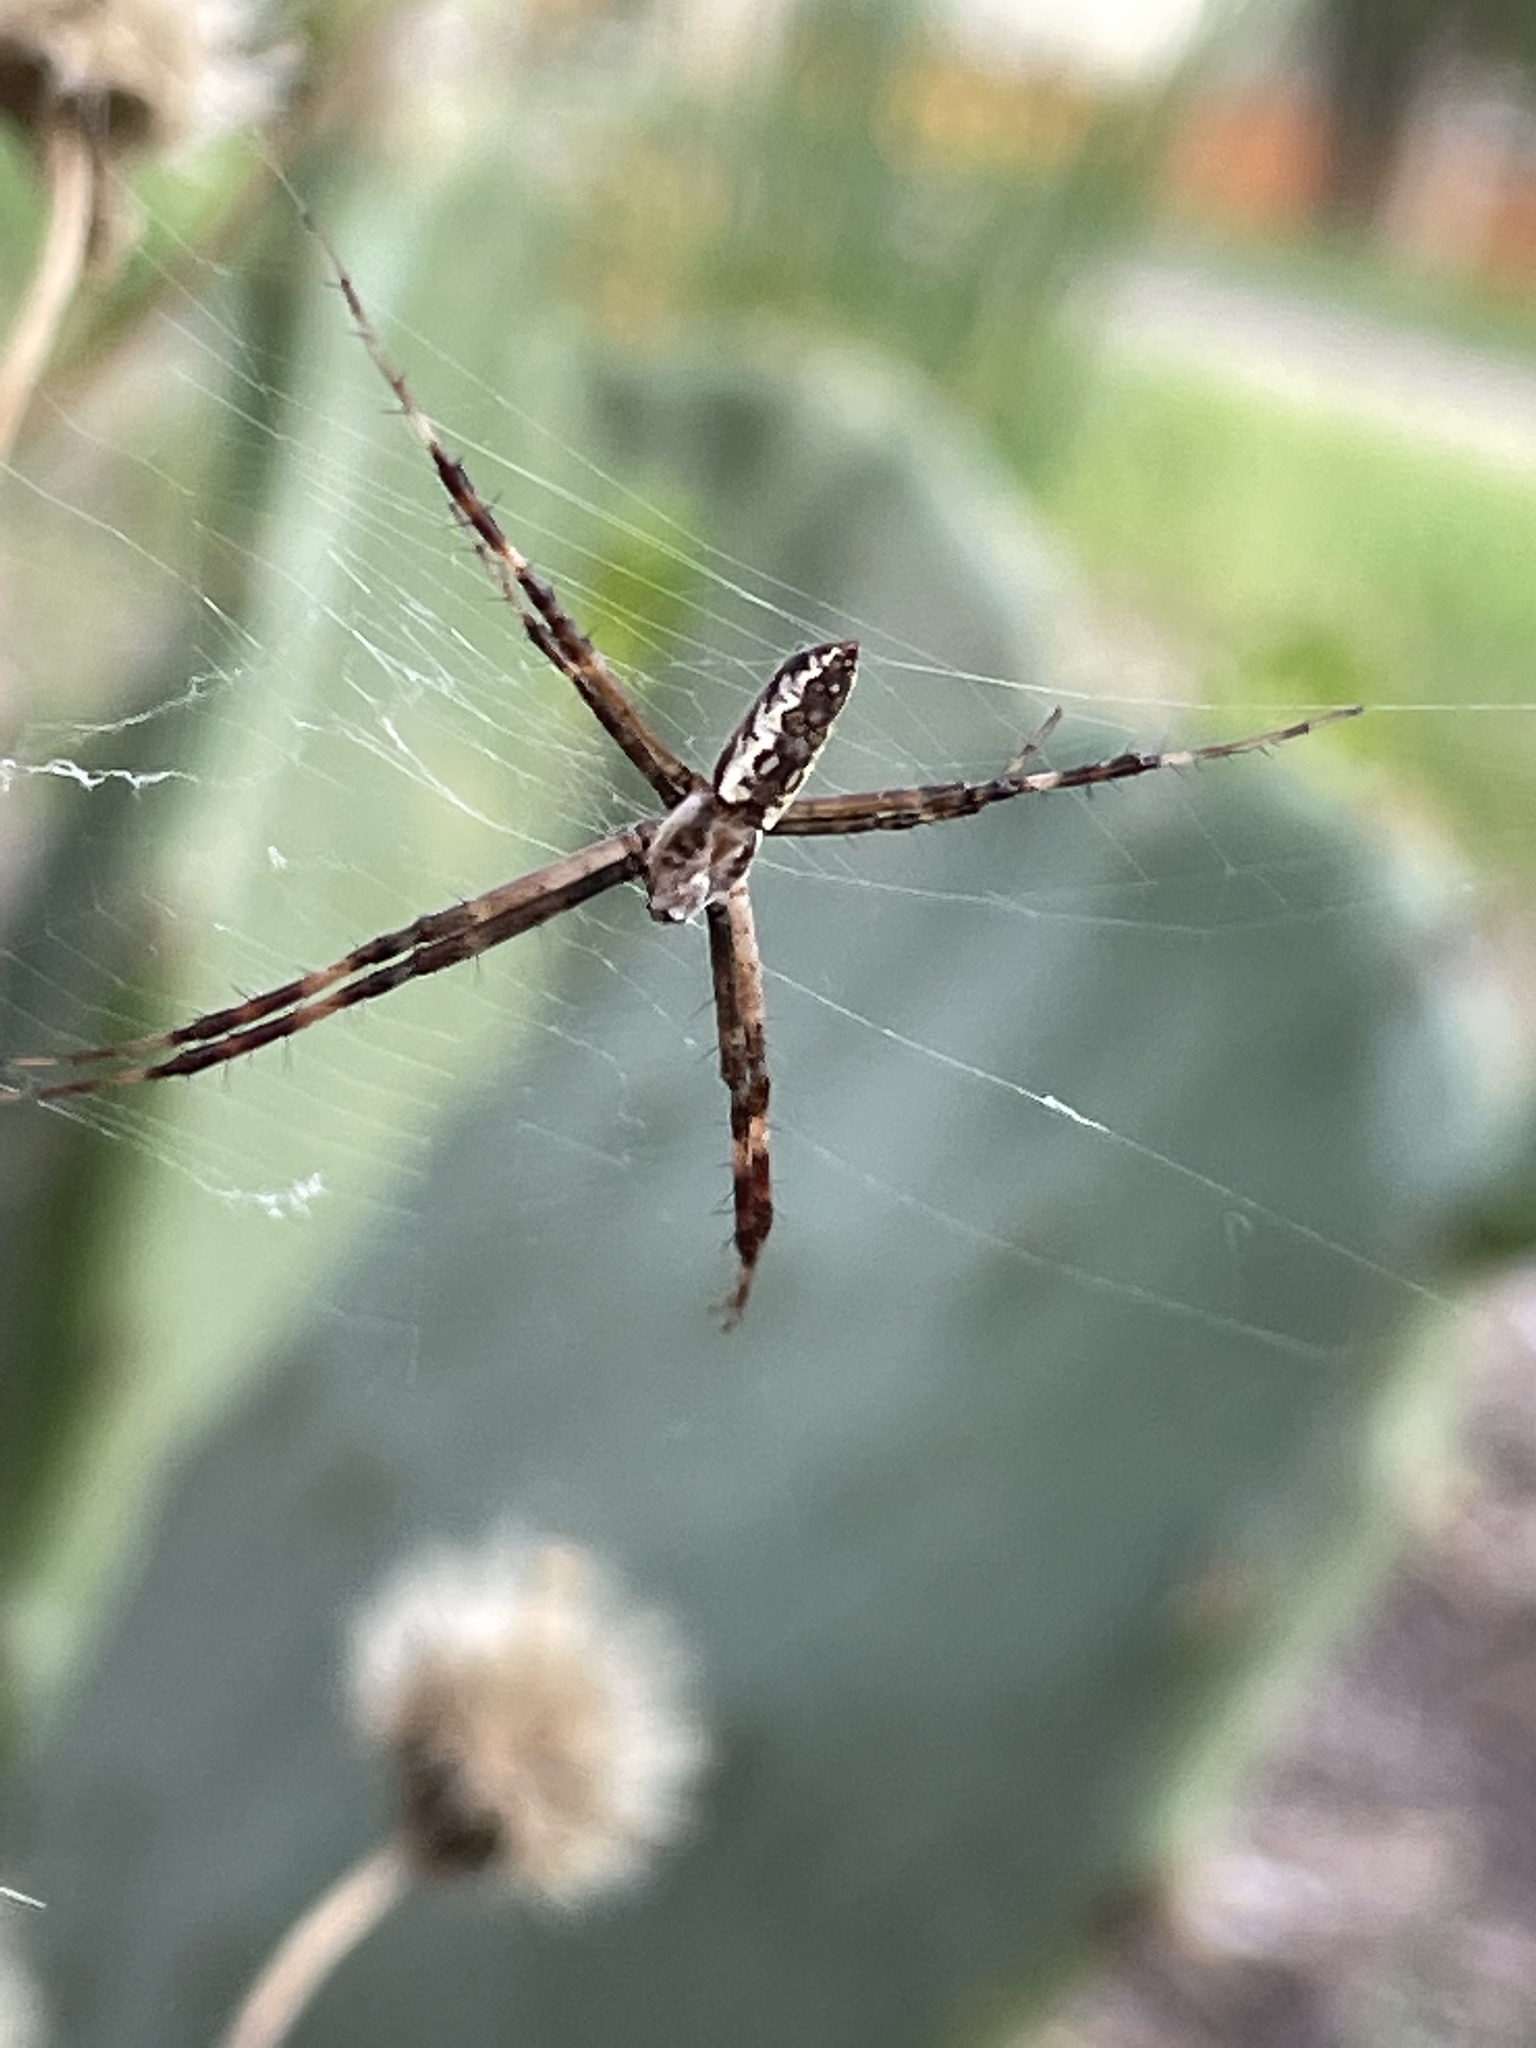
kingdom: Animalia
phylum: Arthropoda
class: Arachnida
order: Araneae
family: Araneidae
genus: Argiope
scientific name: Argiope aurantia
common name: Orb weavers
